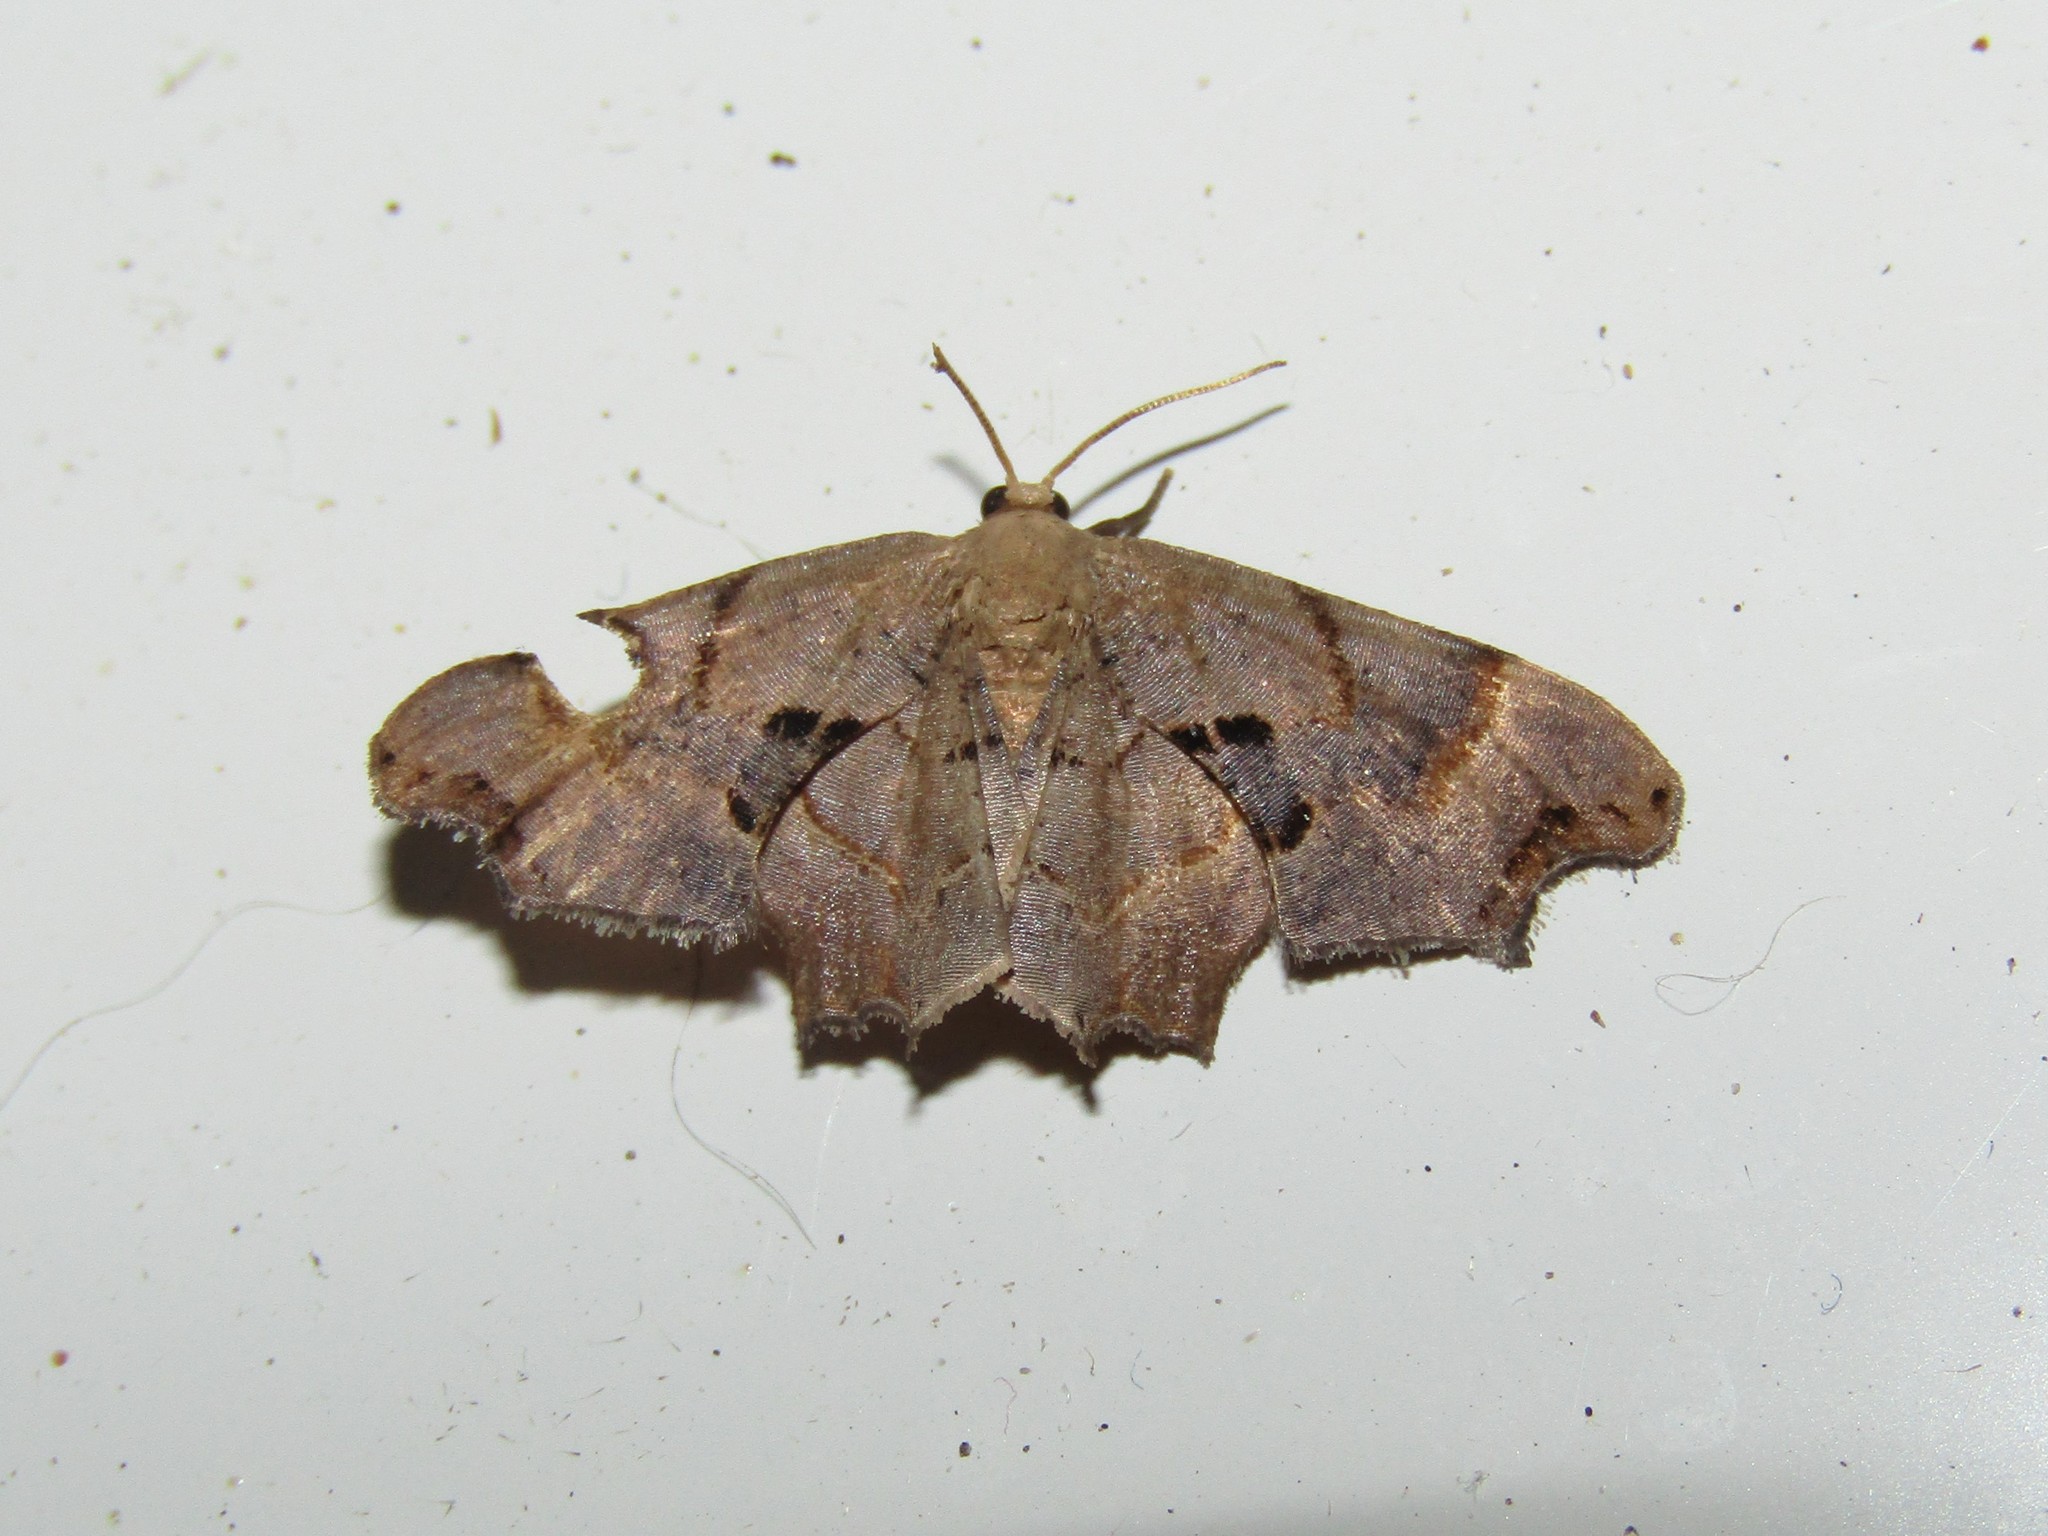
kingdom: Animalia
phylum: Arthropoda
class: Insecta
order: Lepidoptera
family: Uraniidae
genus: Epiplema
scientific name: Epiplema Calledapteryx dryopterata
